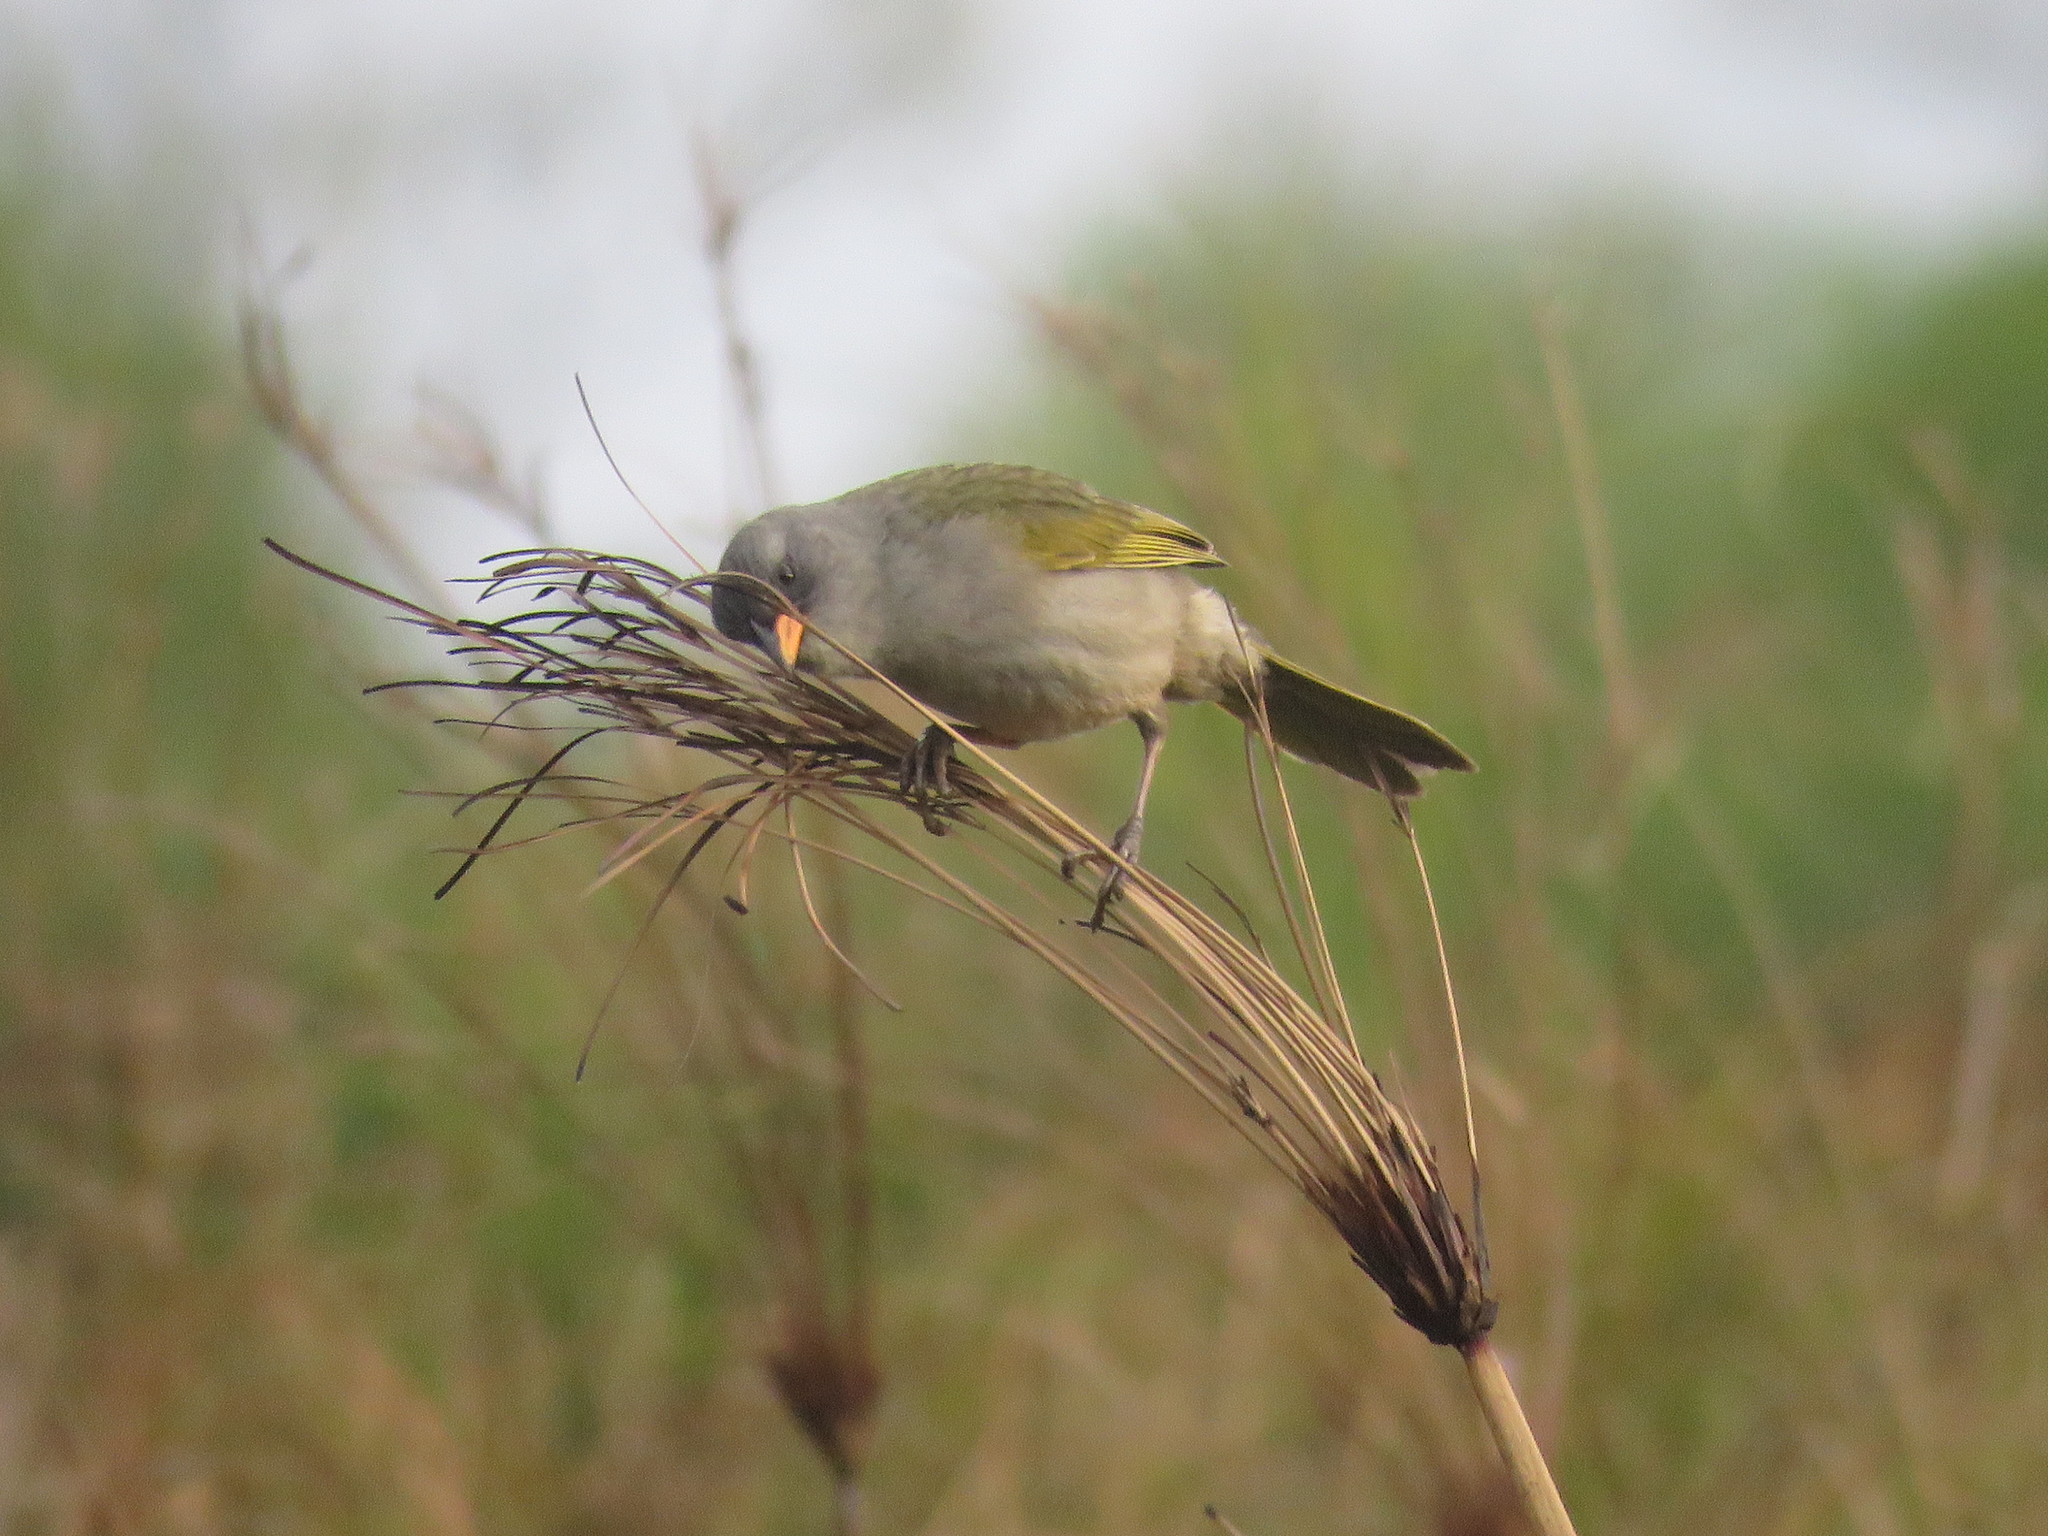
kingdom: Animalia
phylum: Chordata
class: Aves
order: Passeriformes
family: Thraupidae
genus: Embernagra
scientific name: Embernagra platensis
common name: Pampa finch
